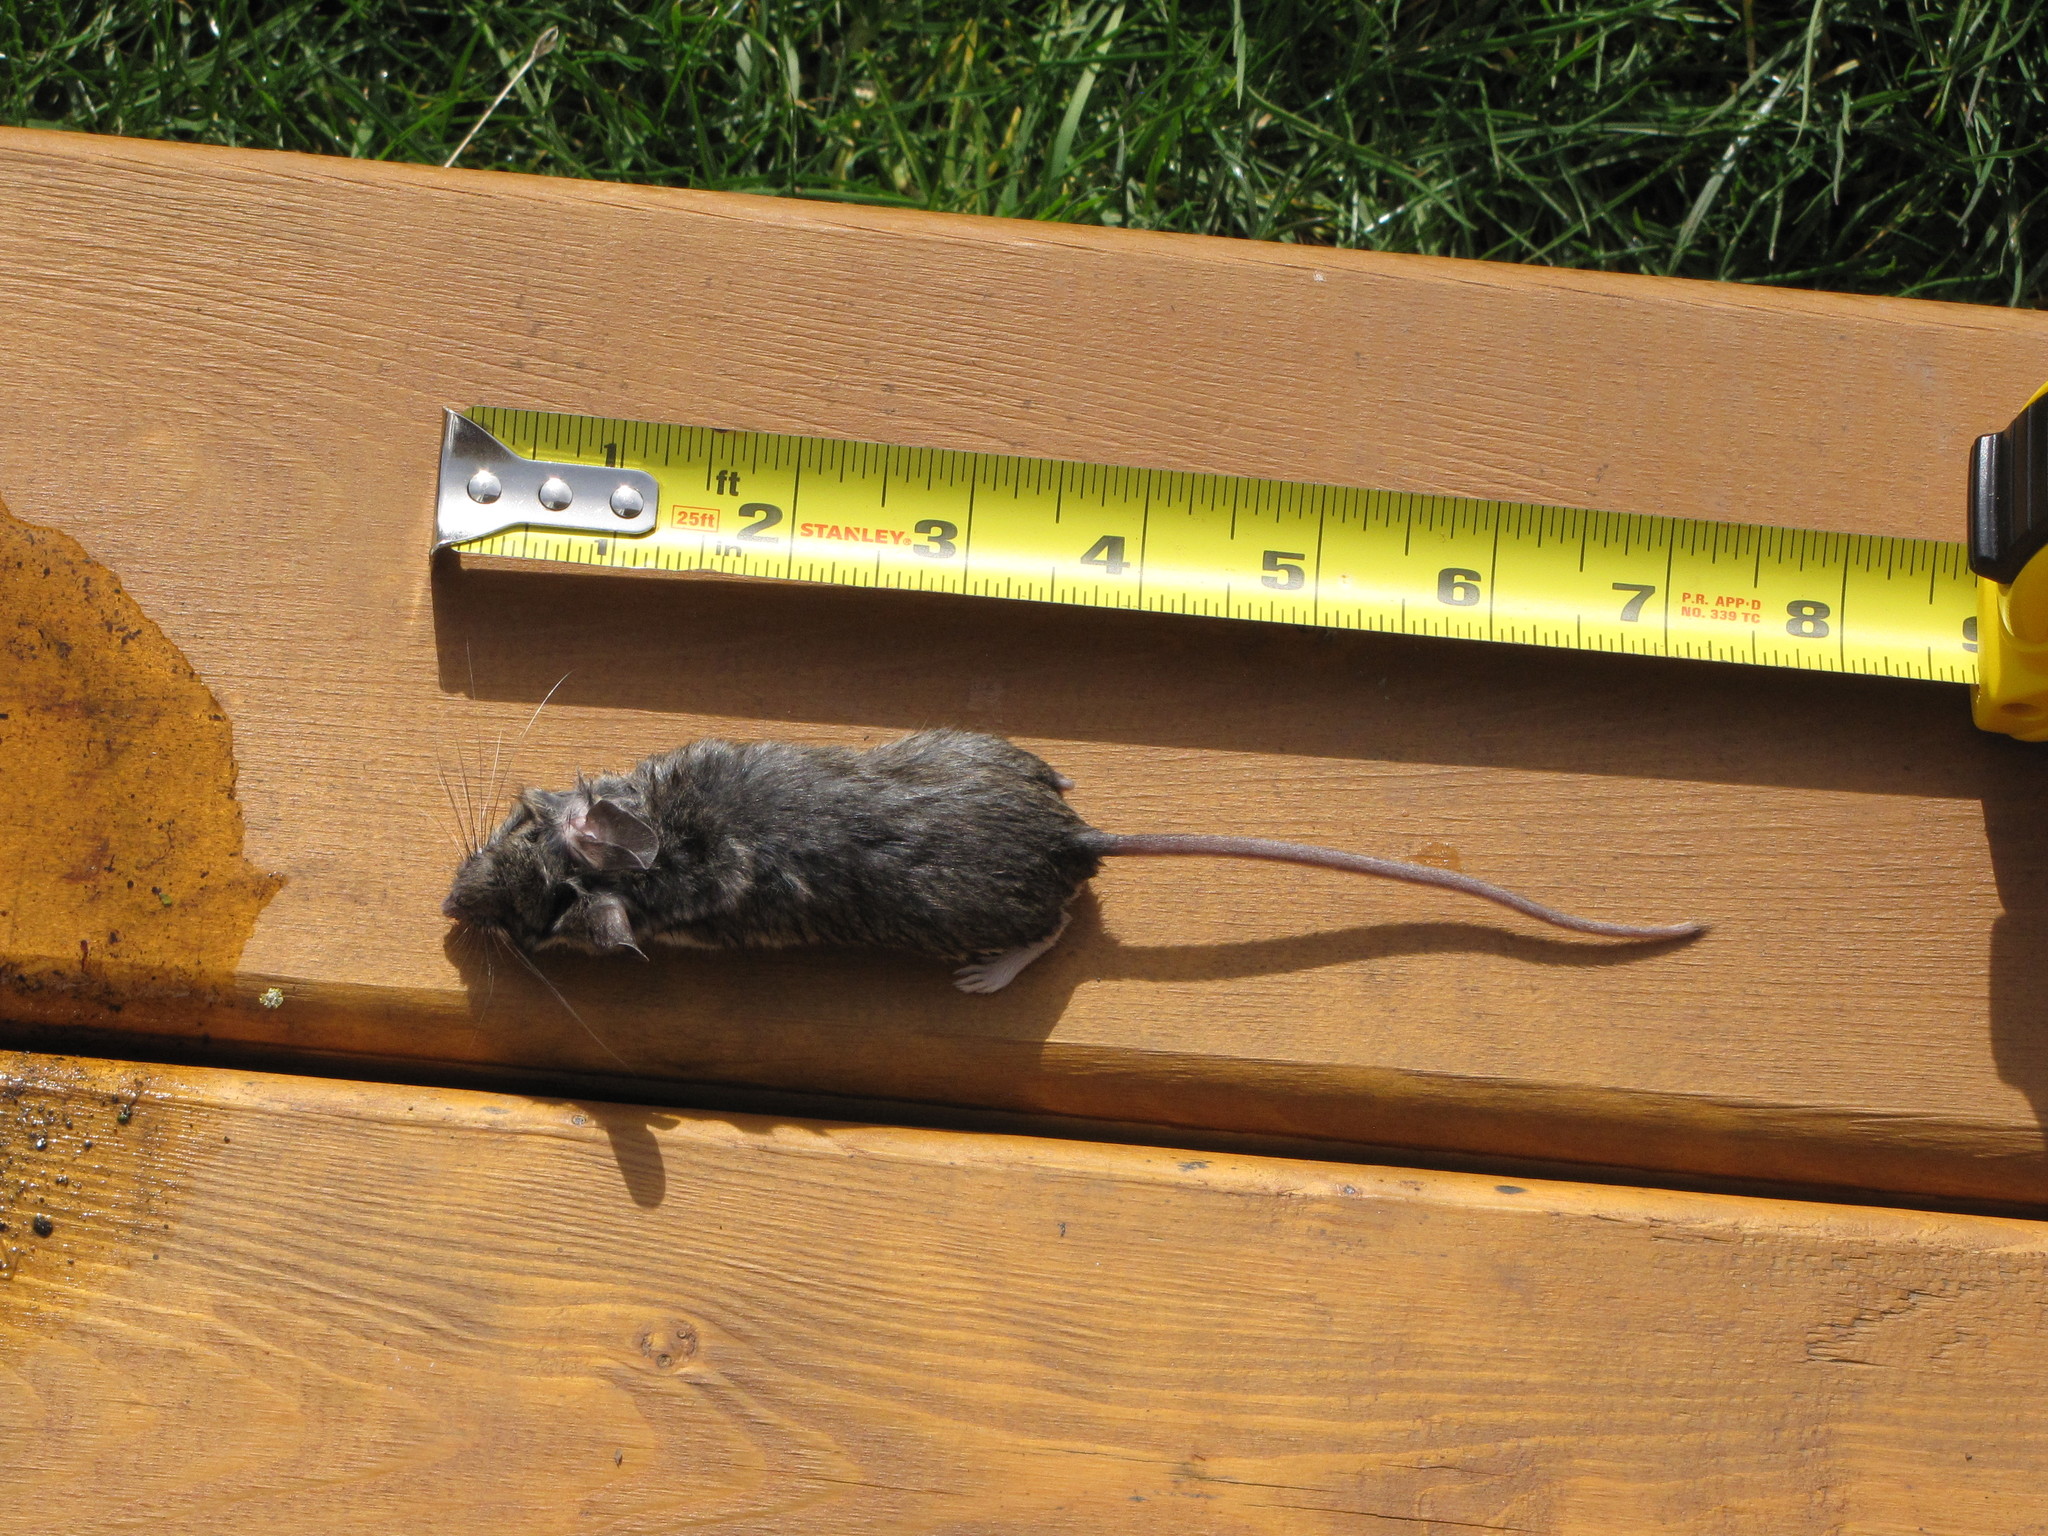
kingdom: Animalia
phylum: Chordata
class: Mammalia
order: Rodentia
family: Cricetidae
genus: Peromyscus
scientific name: Peromyscus maniculatus
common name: Deer mouse
